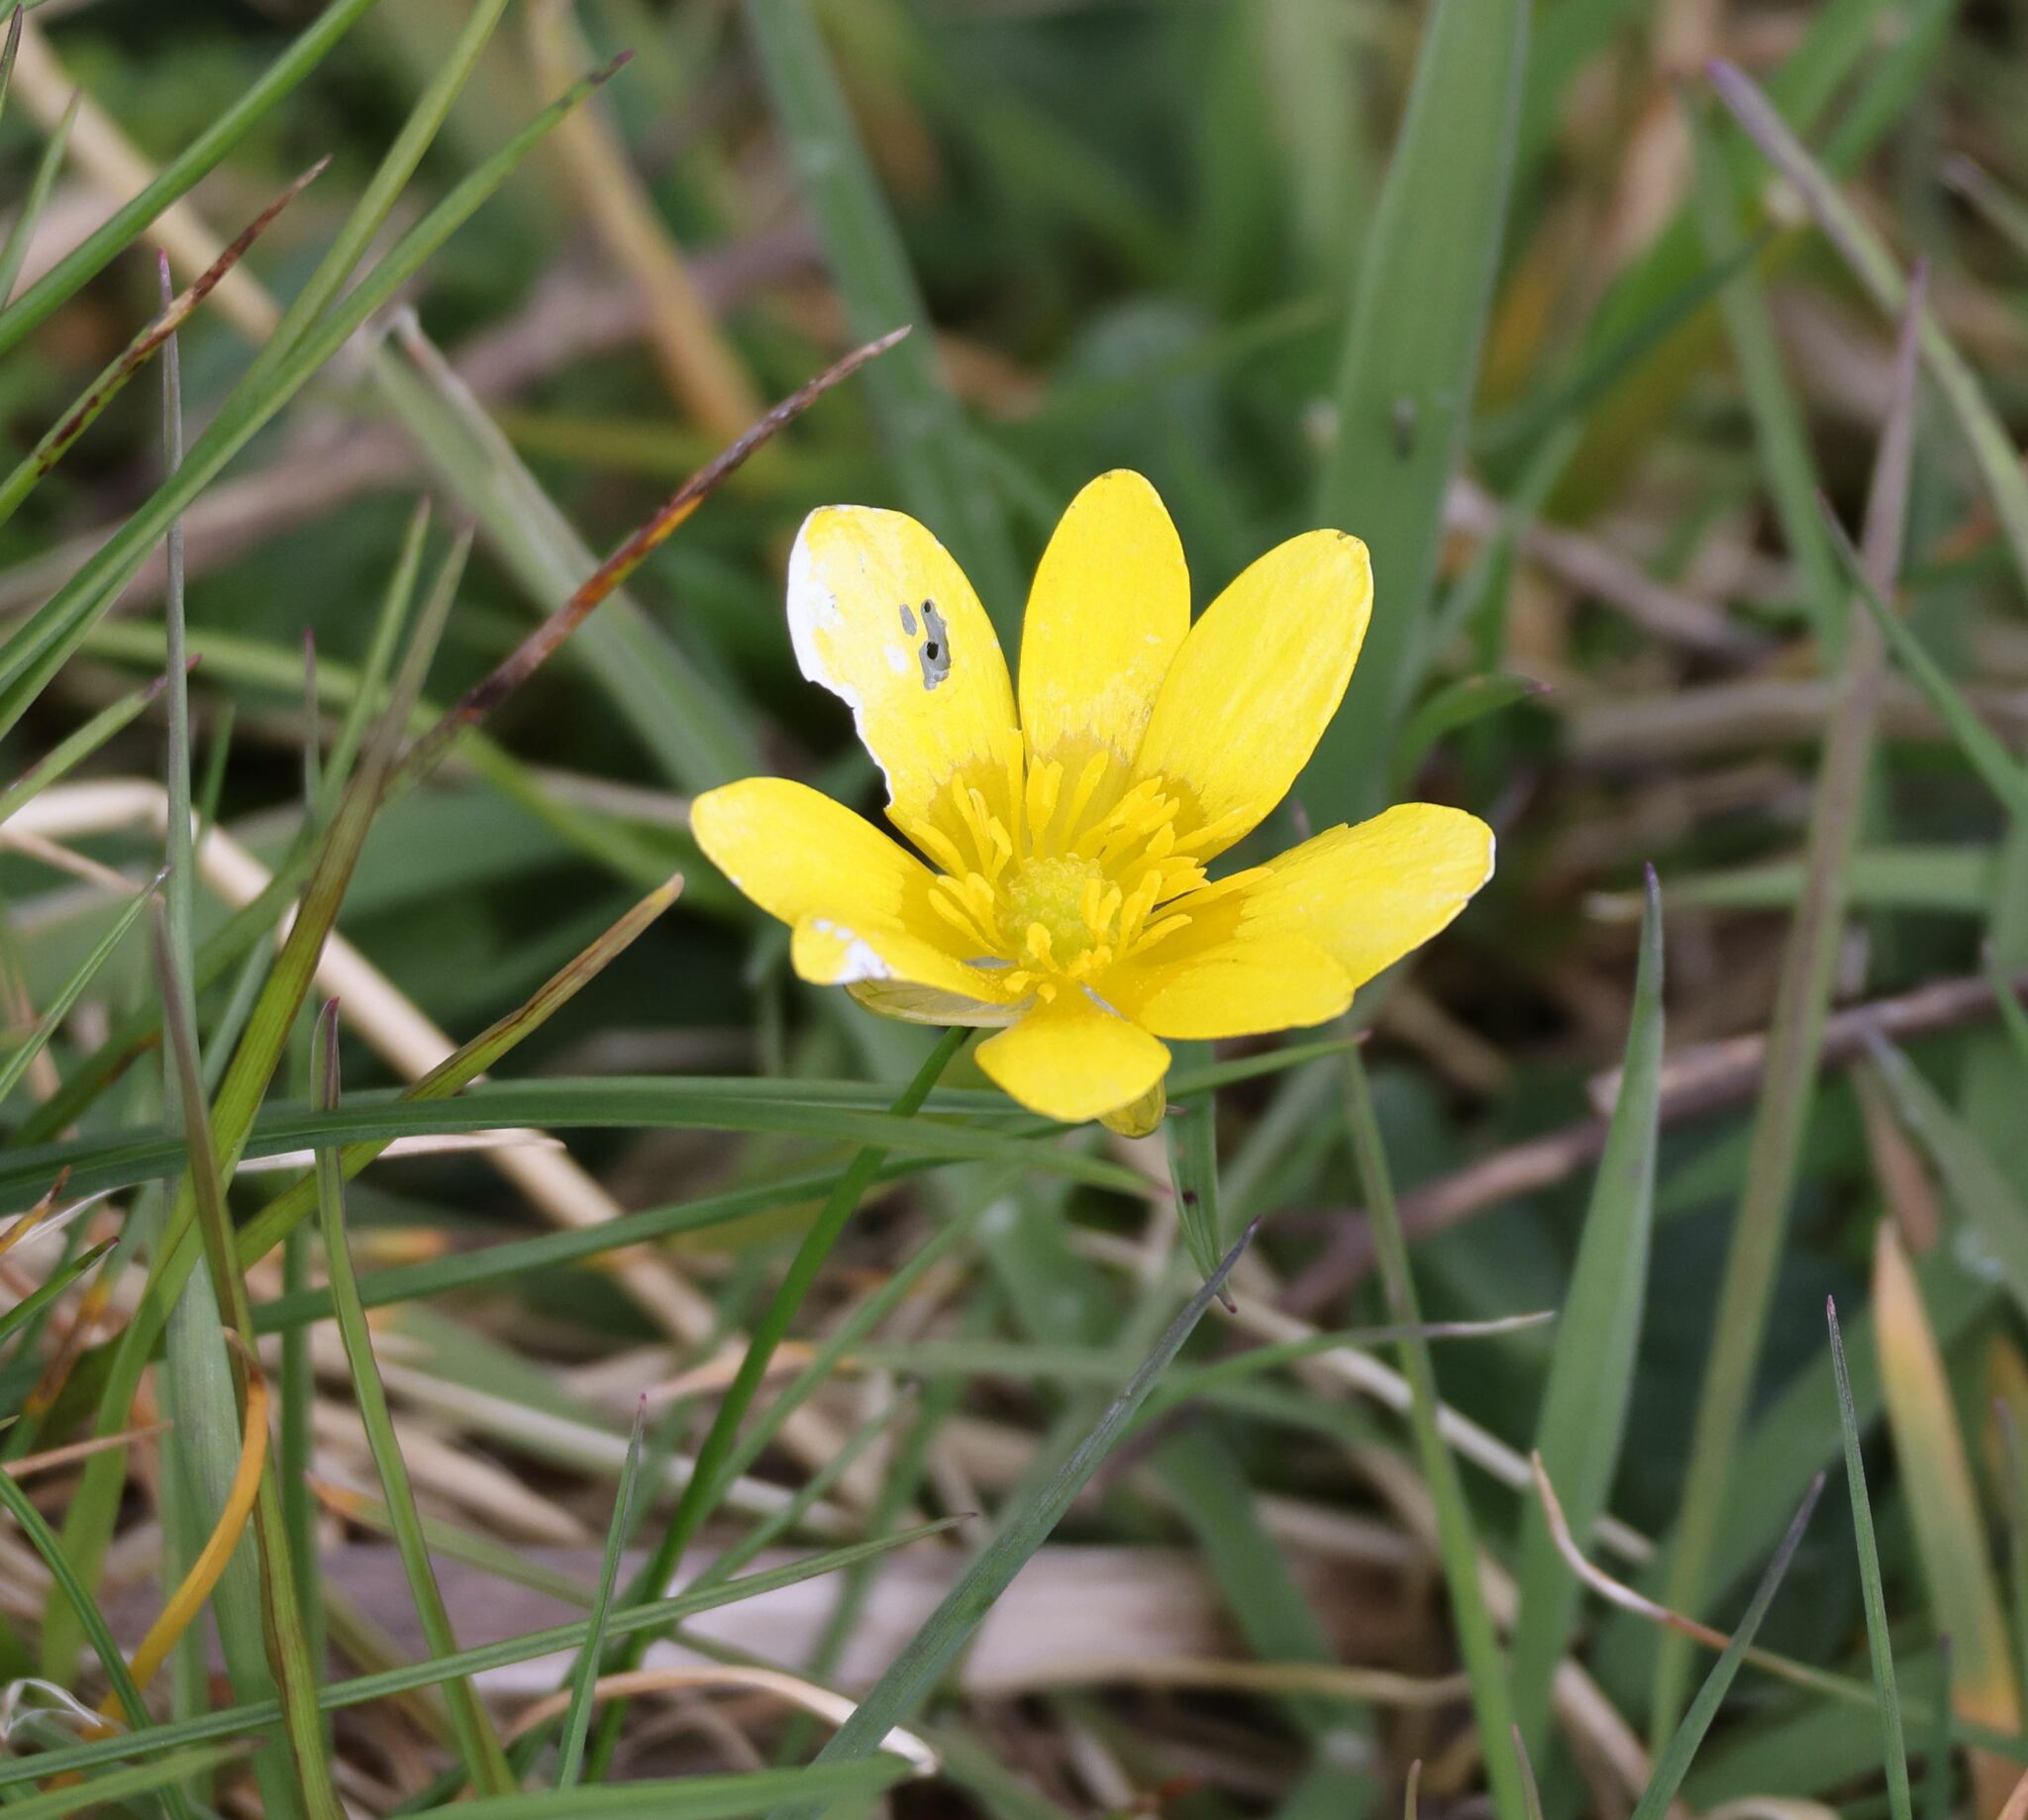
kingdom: Plantae
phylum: Tracheophyta
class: Magnoliopsida
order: Ranunculales
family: Ranunculaceae
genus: Ficaria
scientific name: Ficaria verna
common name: Lesser celandine
